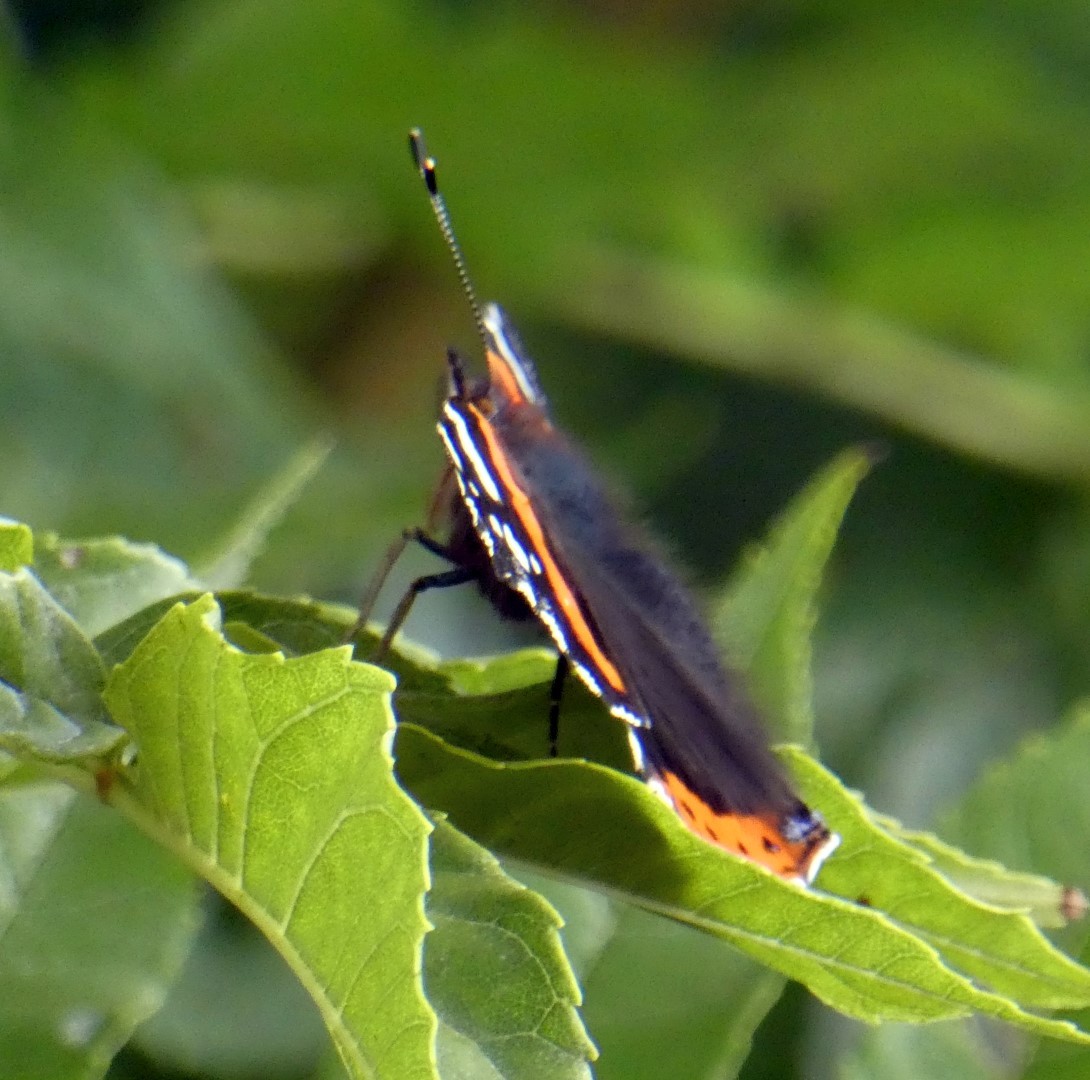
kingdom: Animalia
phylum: Arthropoda
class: Insecta
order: Lepidoptera
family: Nymphalidae
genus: Vanessa
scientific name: Vanessa atalanta
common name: Red admiral
